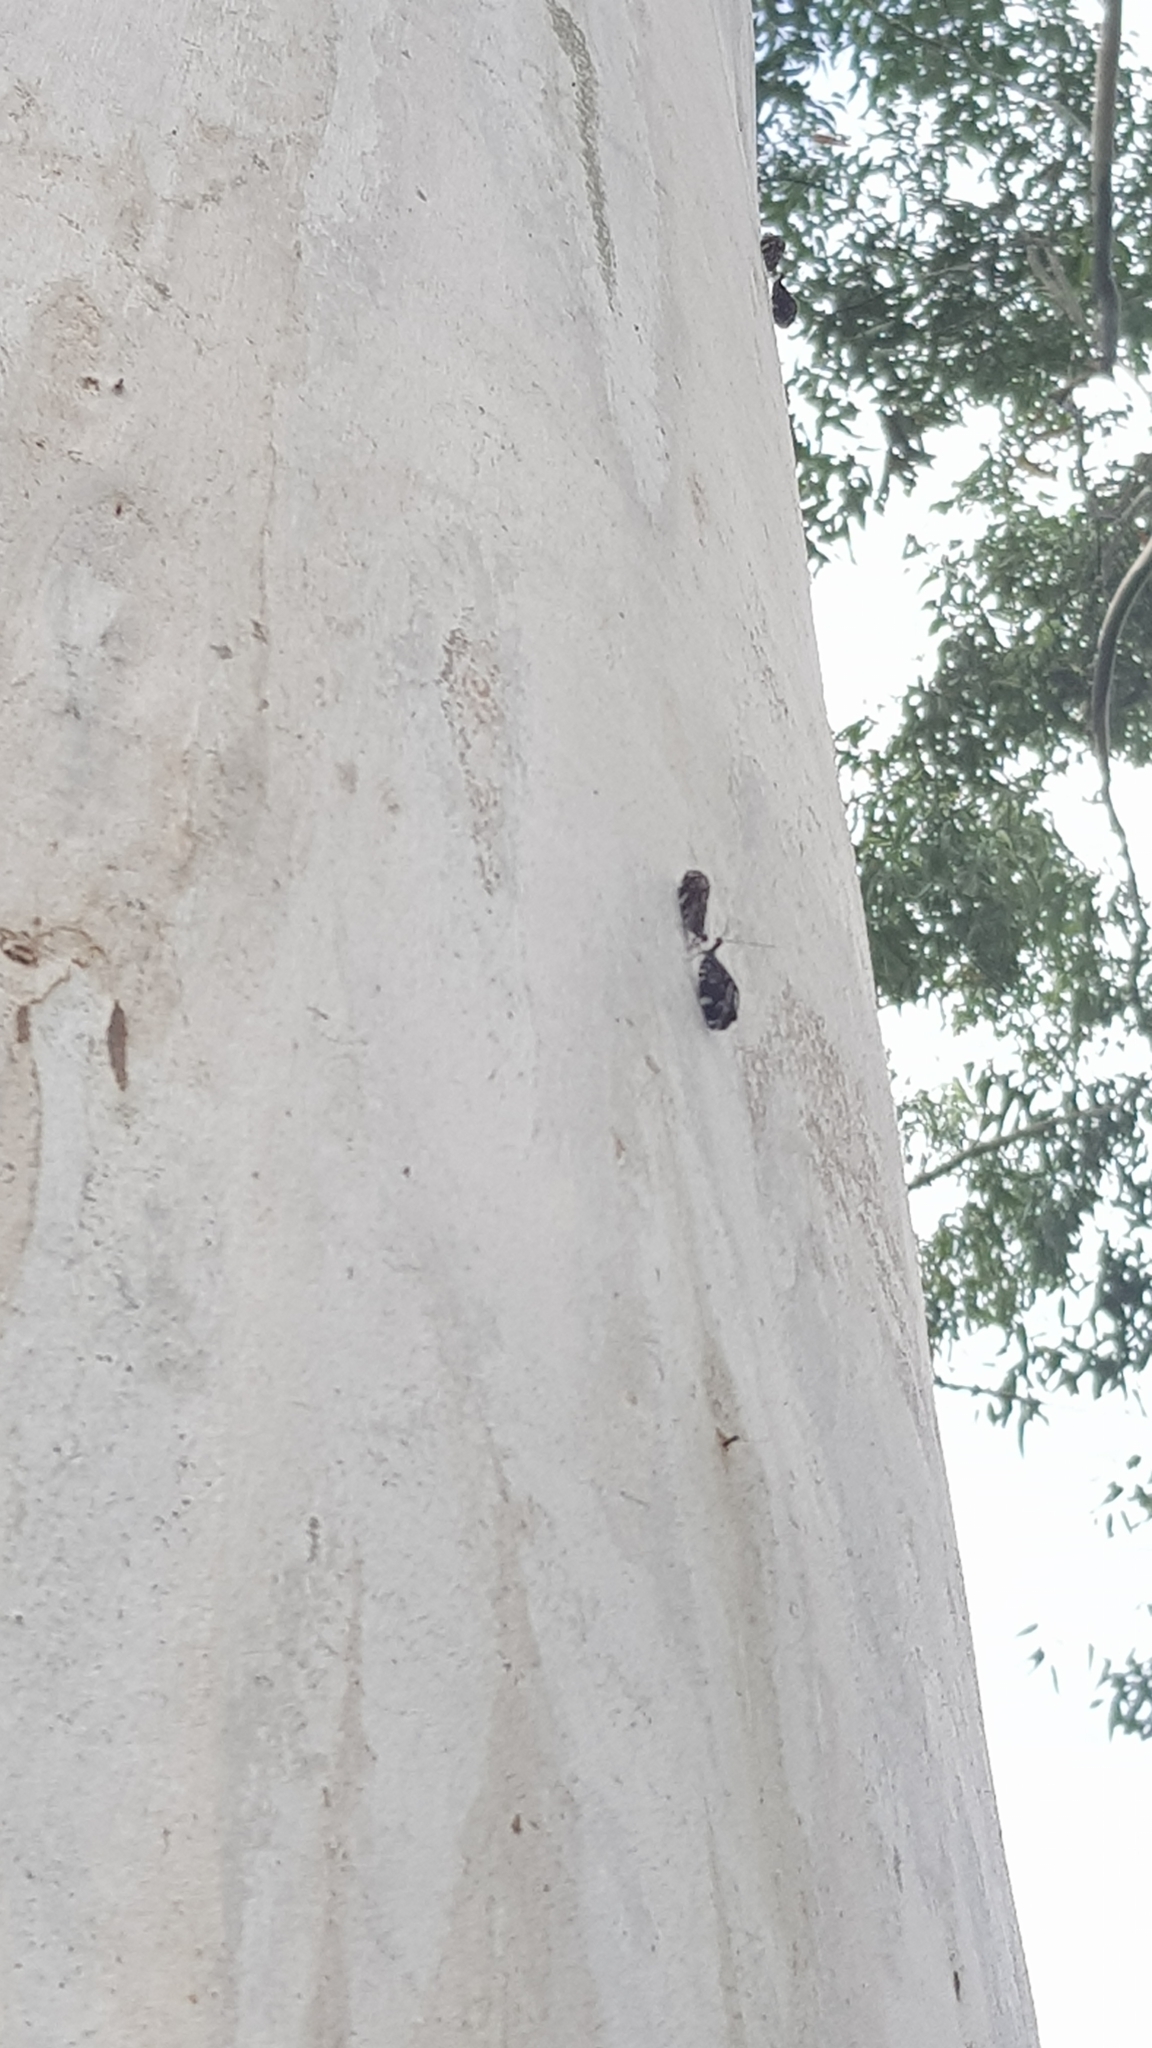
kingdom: Animalia
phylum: Arthropoda
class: Insecta
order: Neuroptera
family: Osmylidae
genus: Porismus
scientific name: Porismus strigatus
